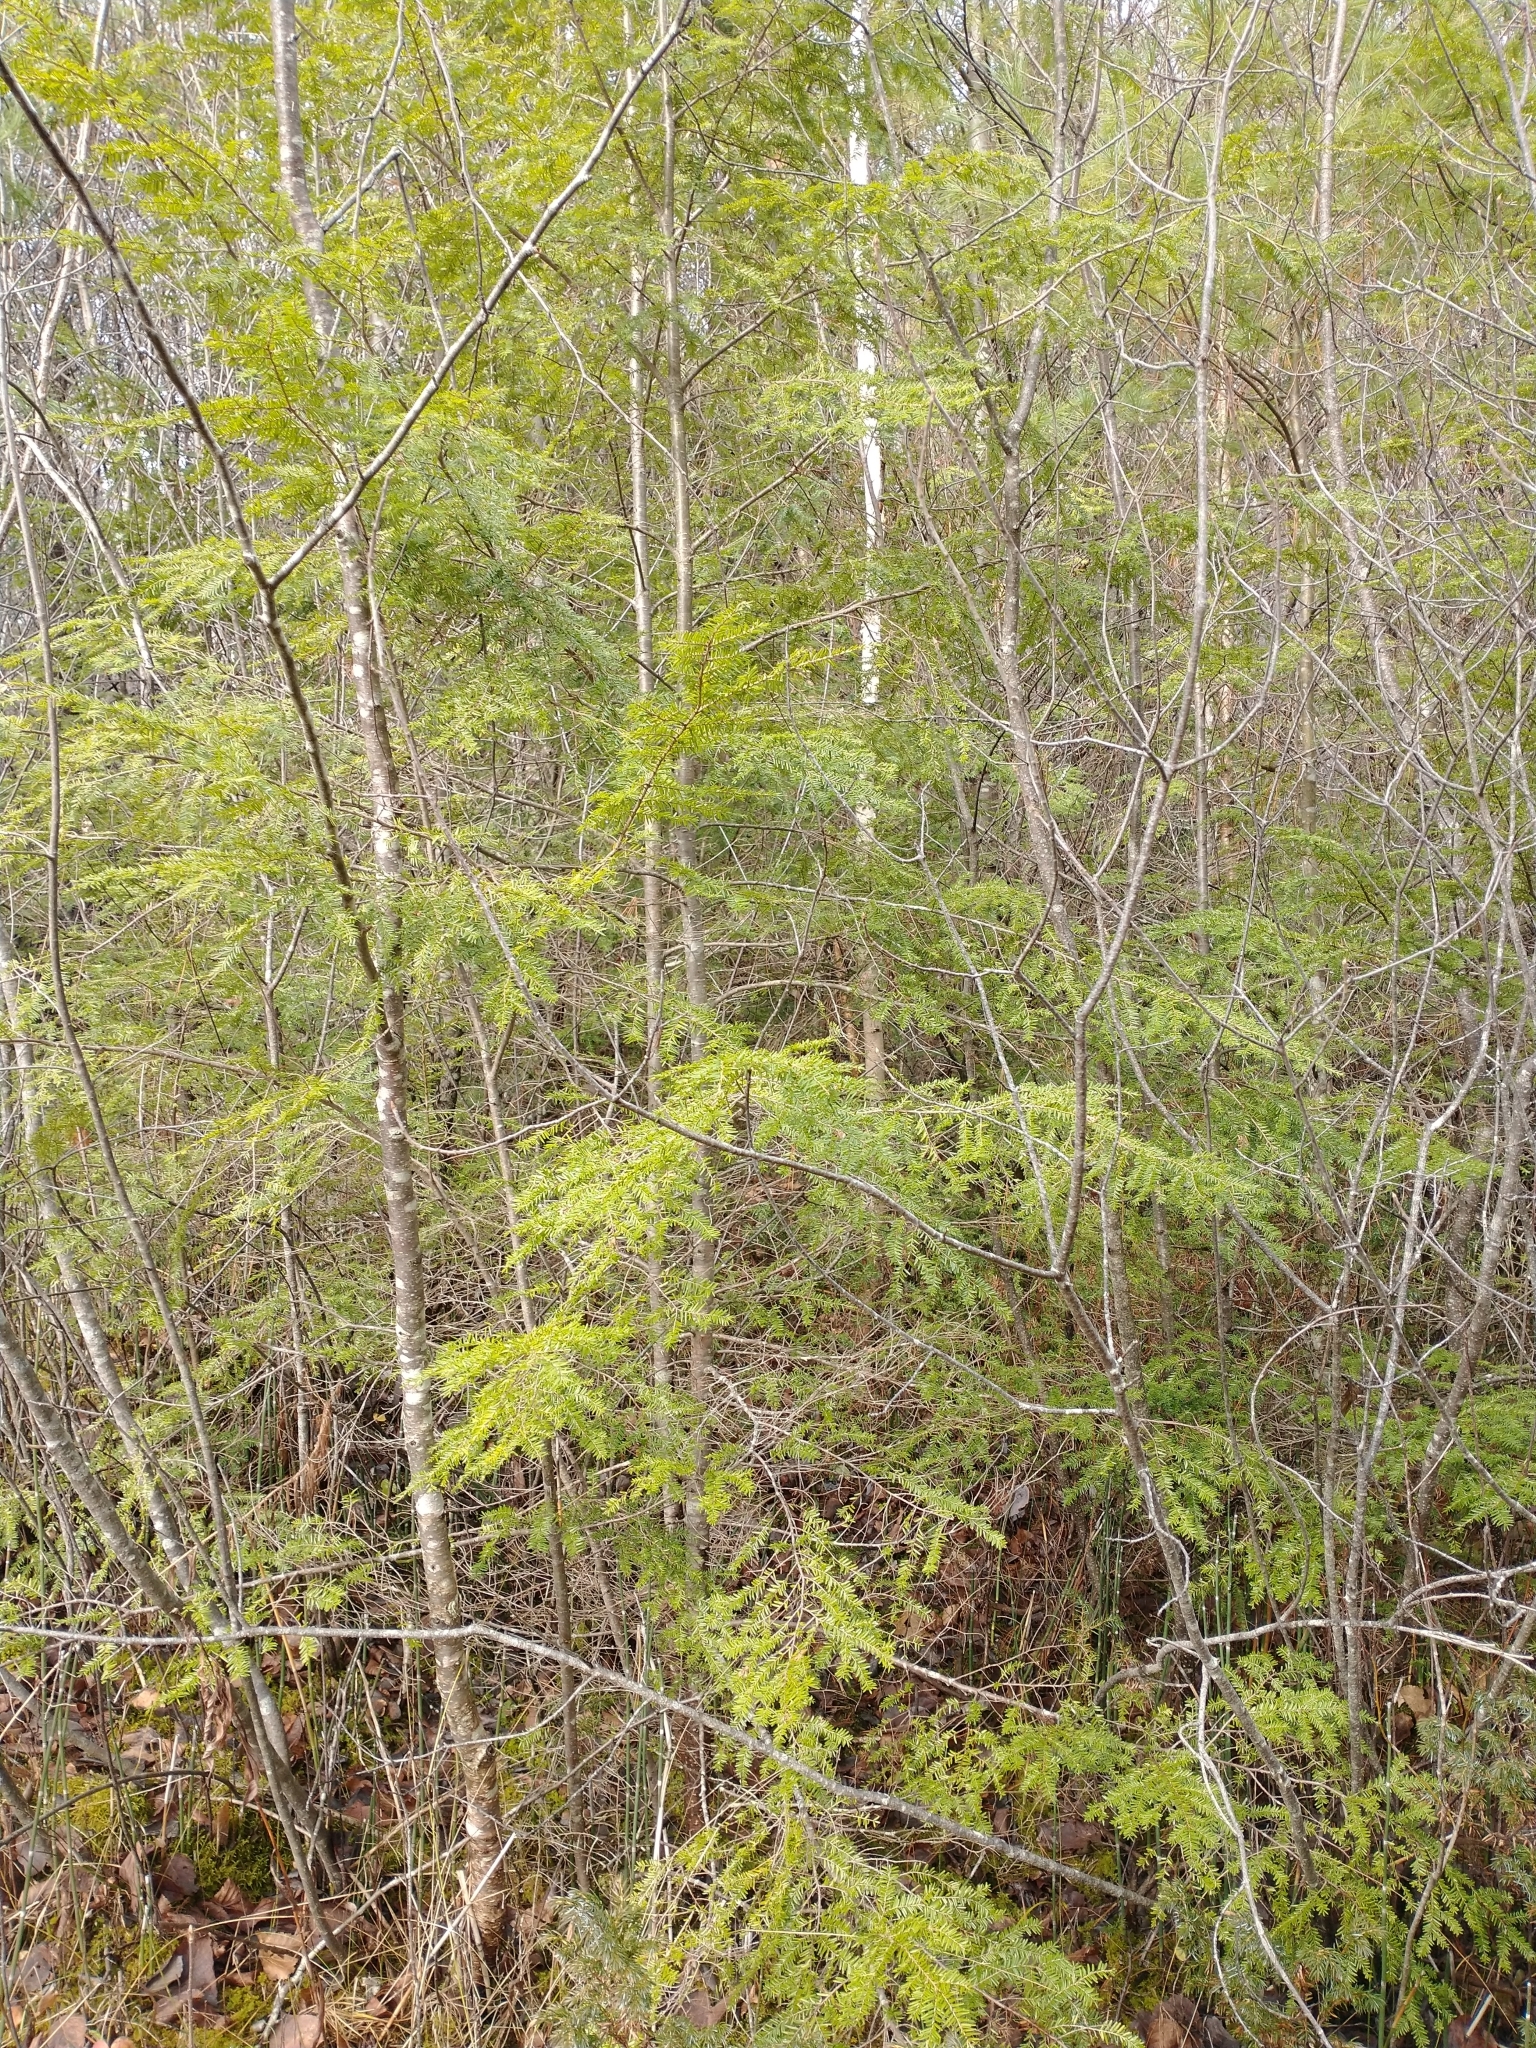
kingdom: Plantae
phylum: Tracheophyta
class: Pinopsida
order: Pinales
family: Pinaceae
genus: Tsuga
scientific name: Tsuga canadensis
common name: Eastern hemlock
